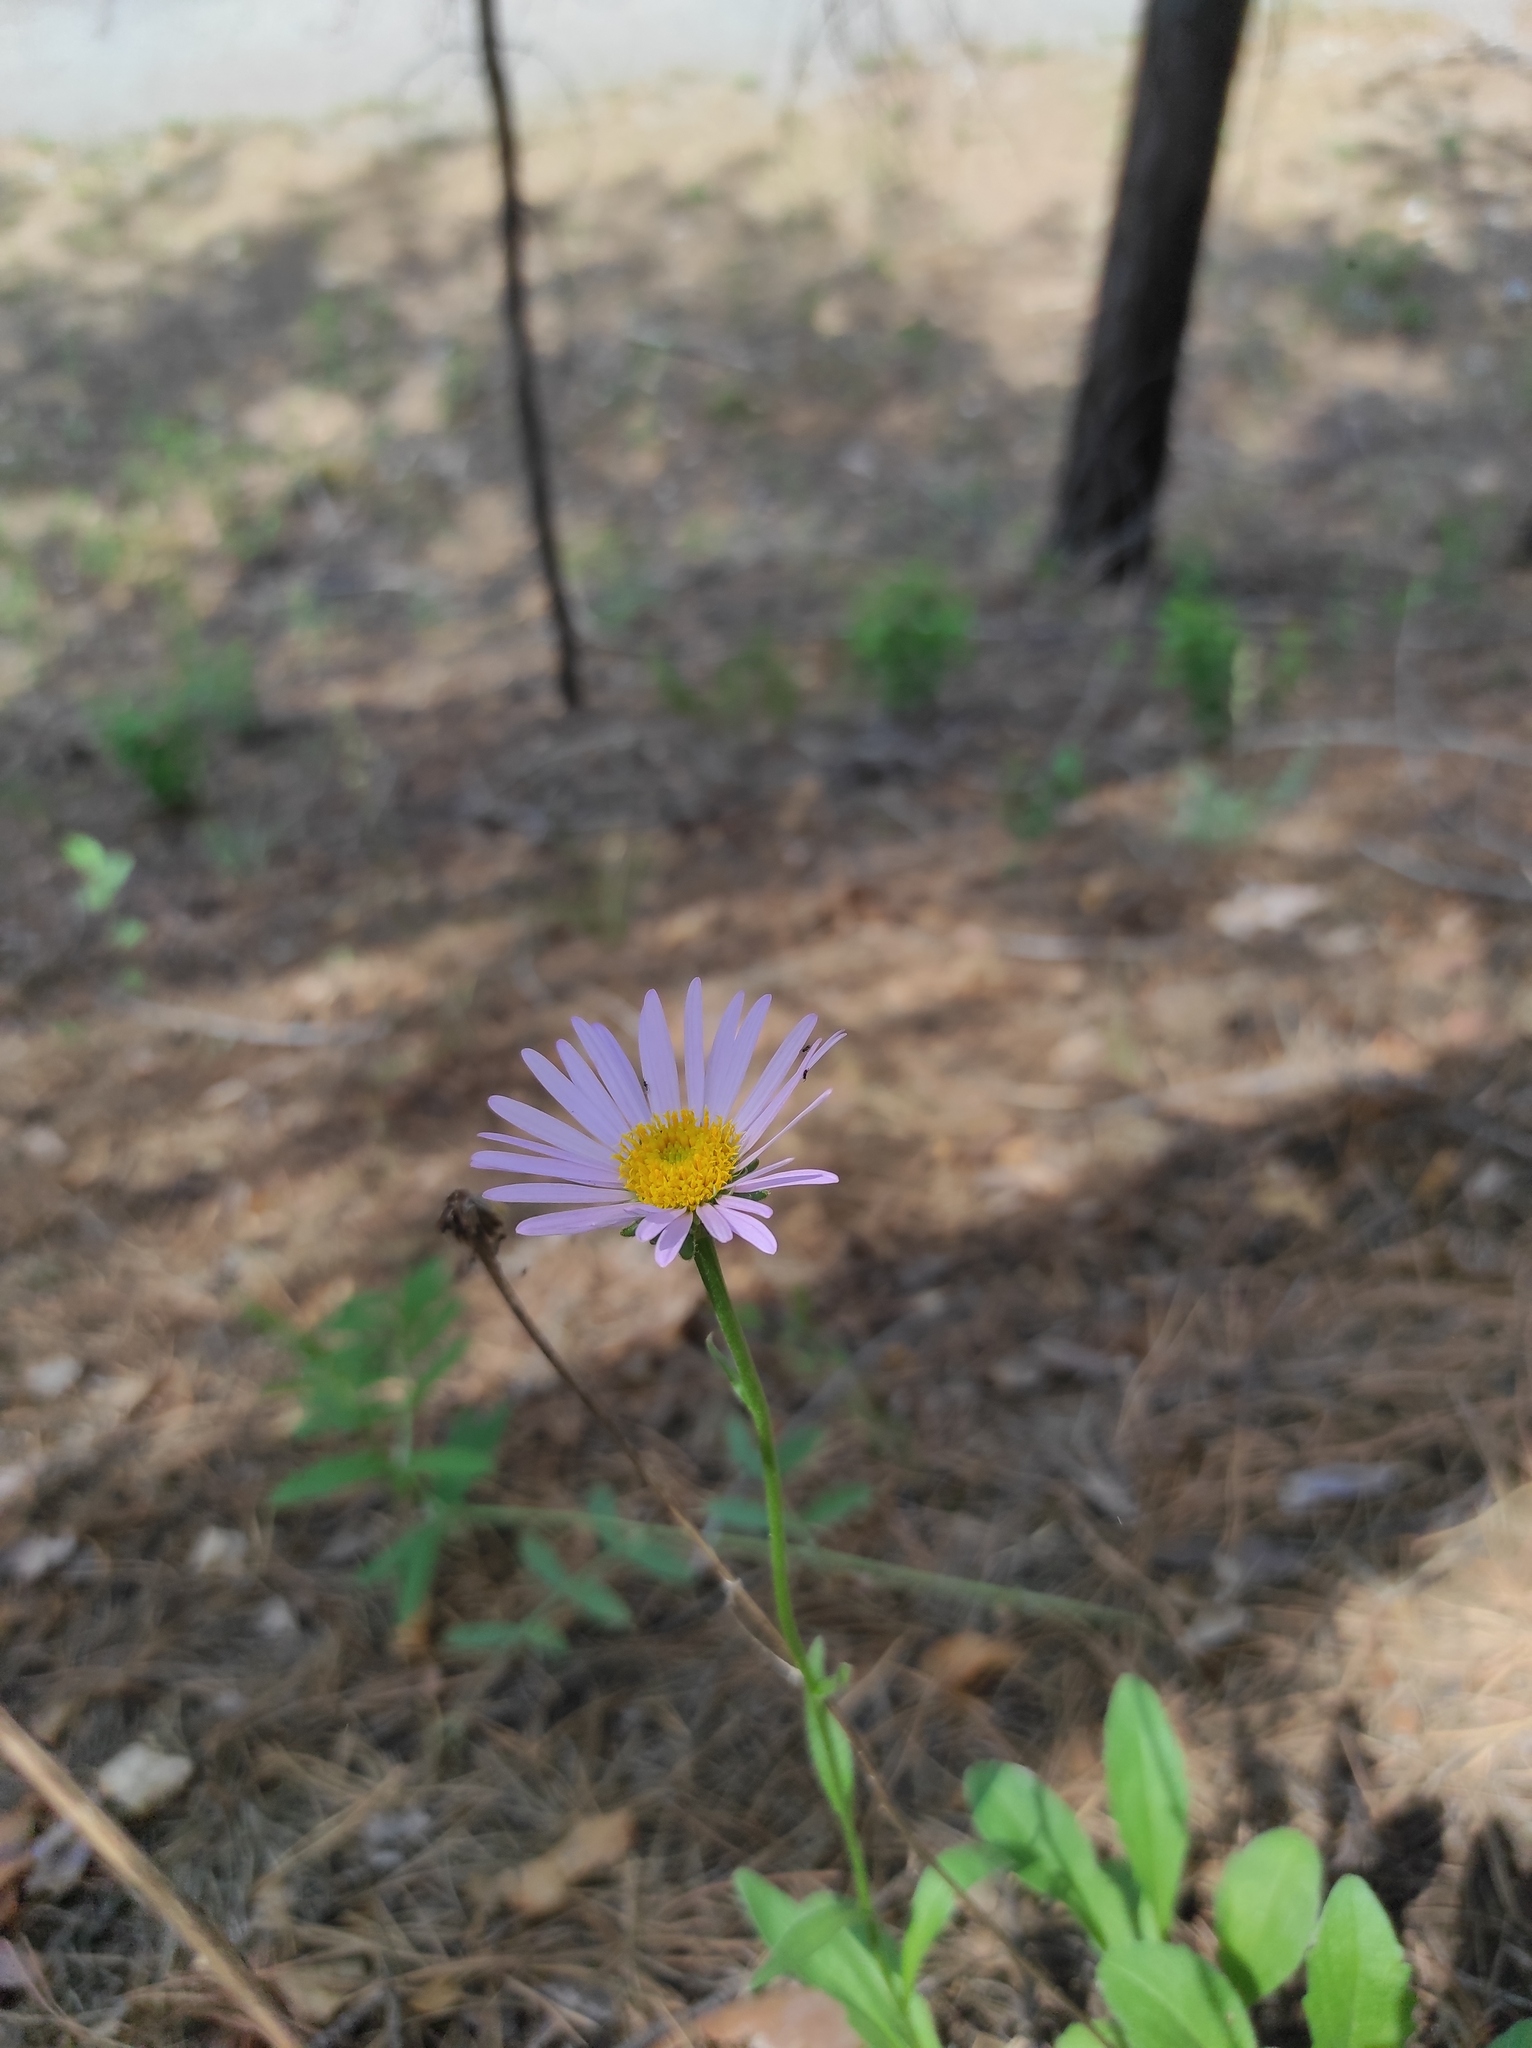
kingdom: Plantae
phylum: Tracheophyta
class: Magnoliopsida
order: Asterales
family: Asteraceae
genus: Aster
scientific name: Aster alpinus
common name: Alpine aster
